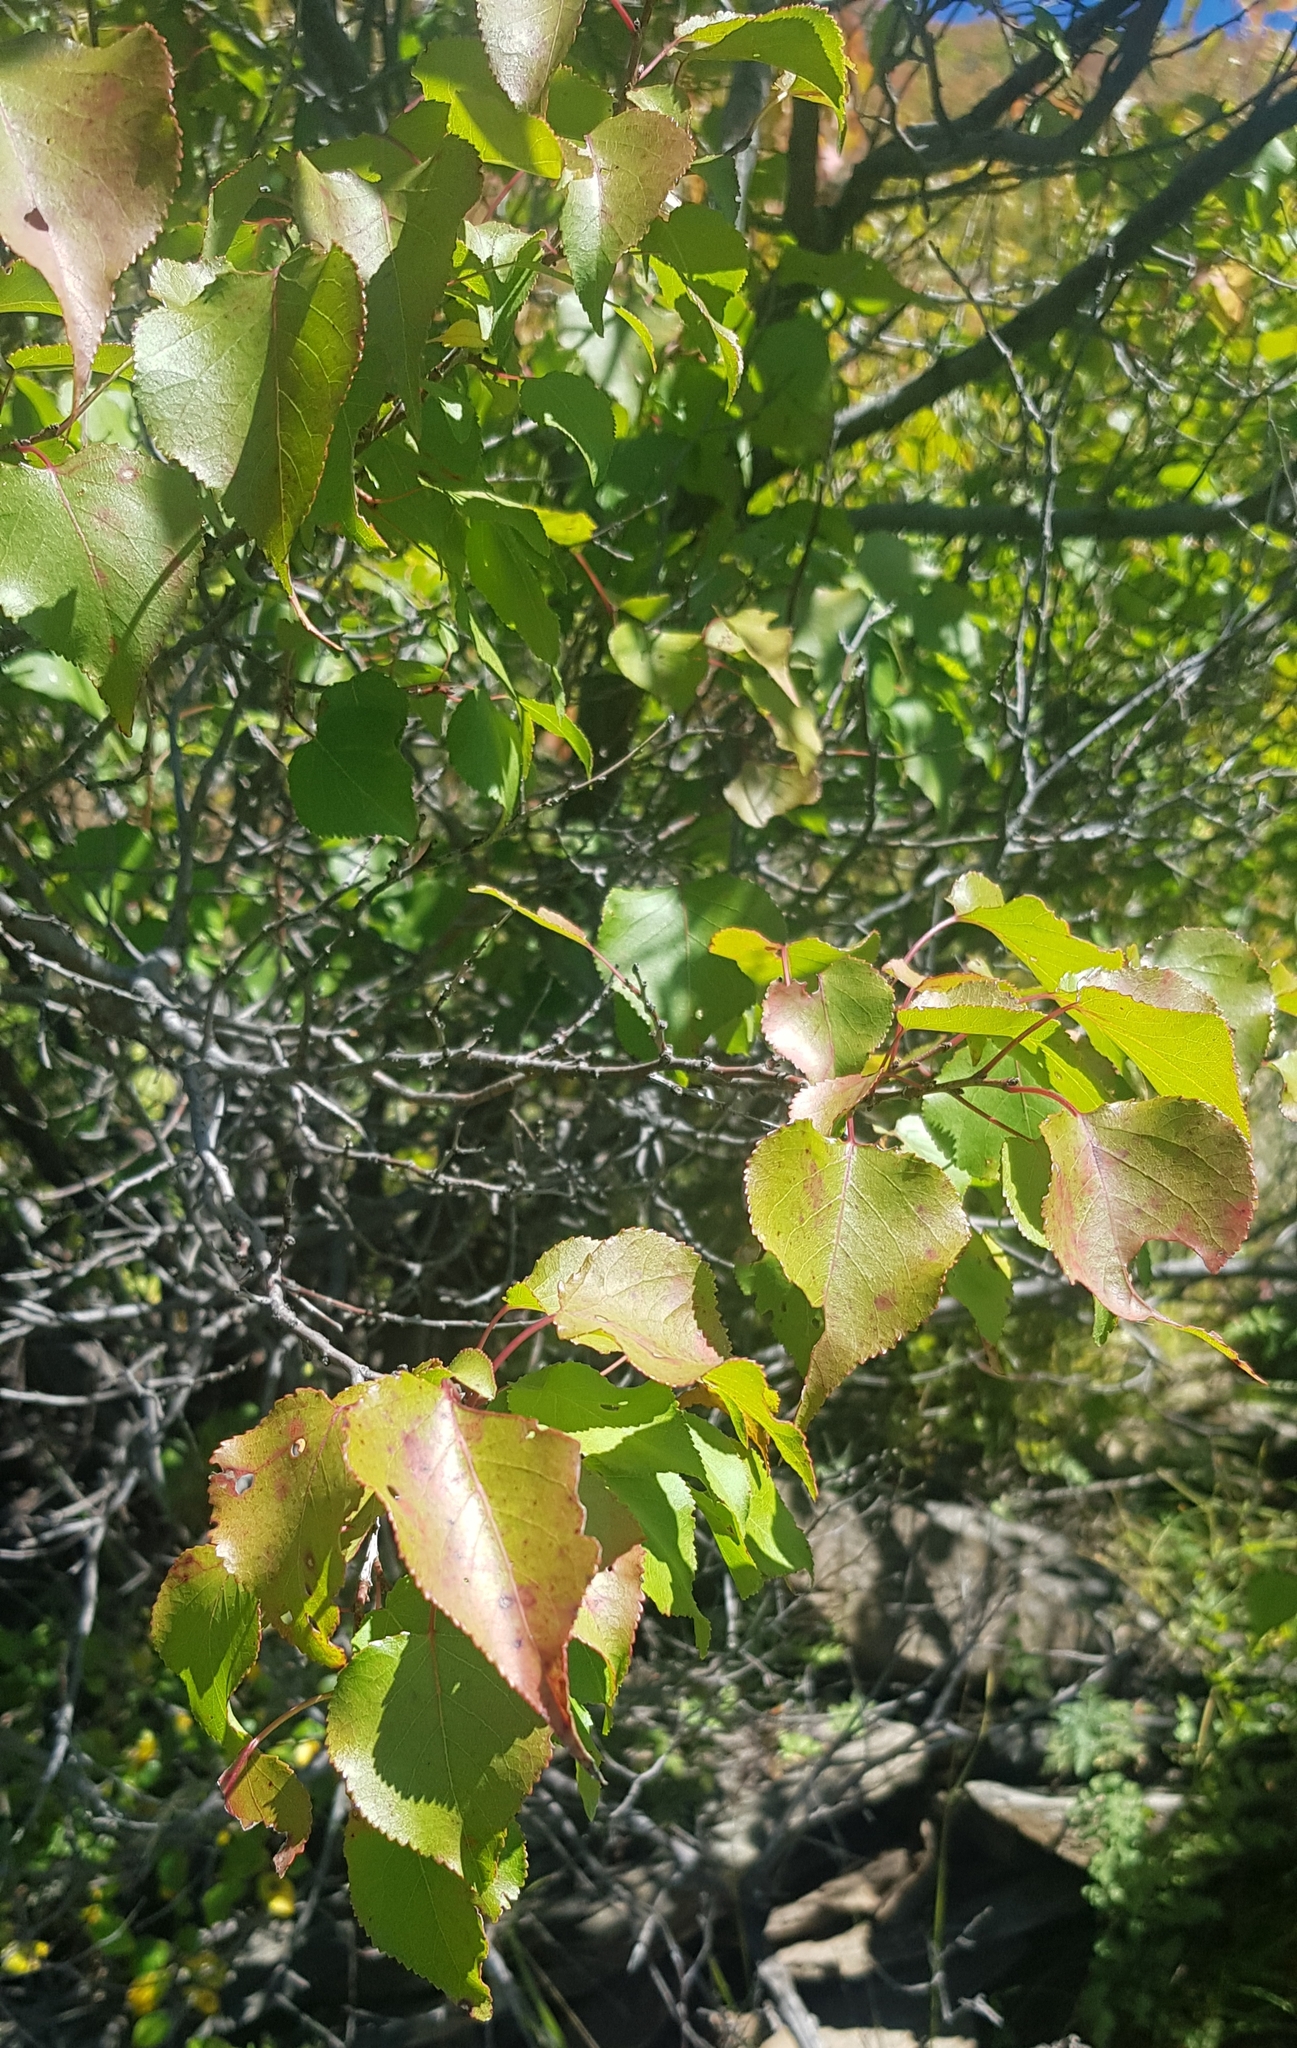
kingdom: Plantae
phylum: Tracheophyta
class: Magnoliopsida
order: Fagales
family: Betulaceae
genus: Betula
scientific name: Betula pendula
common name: Silver birch
